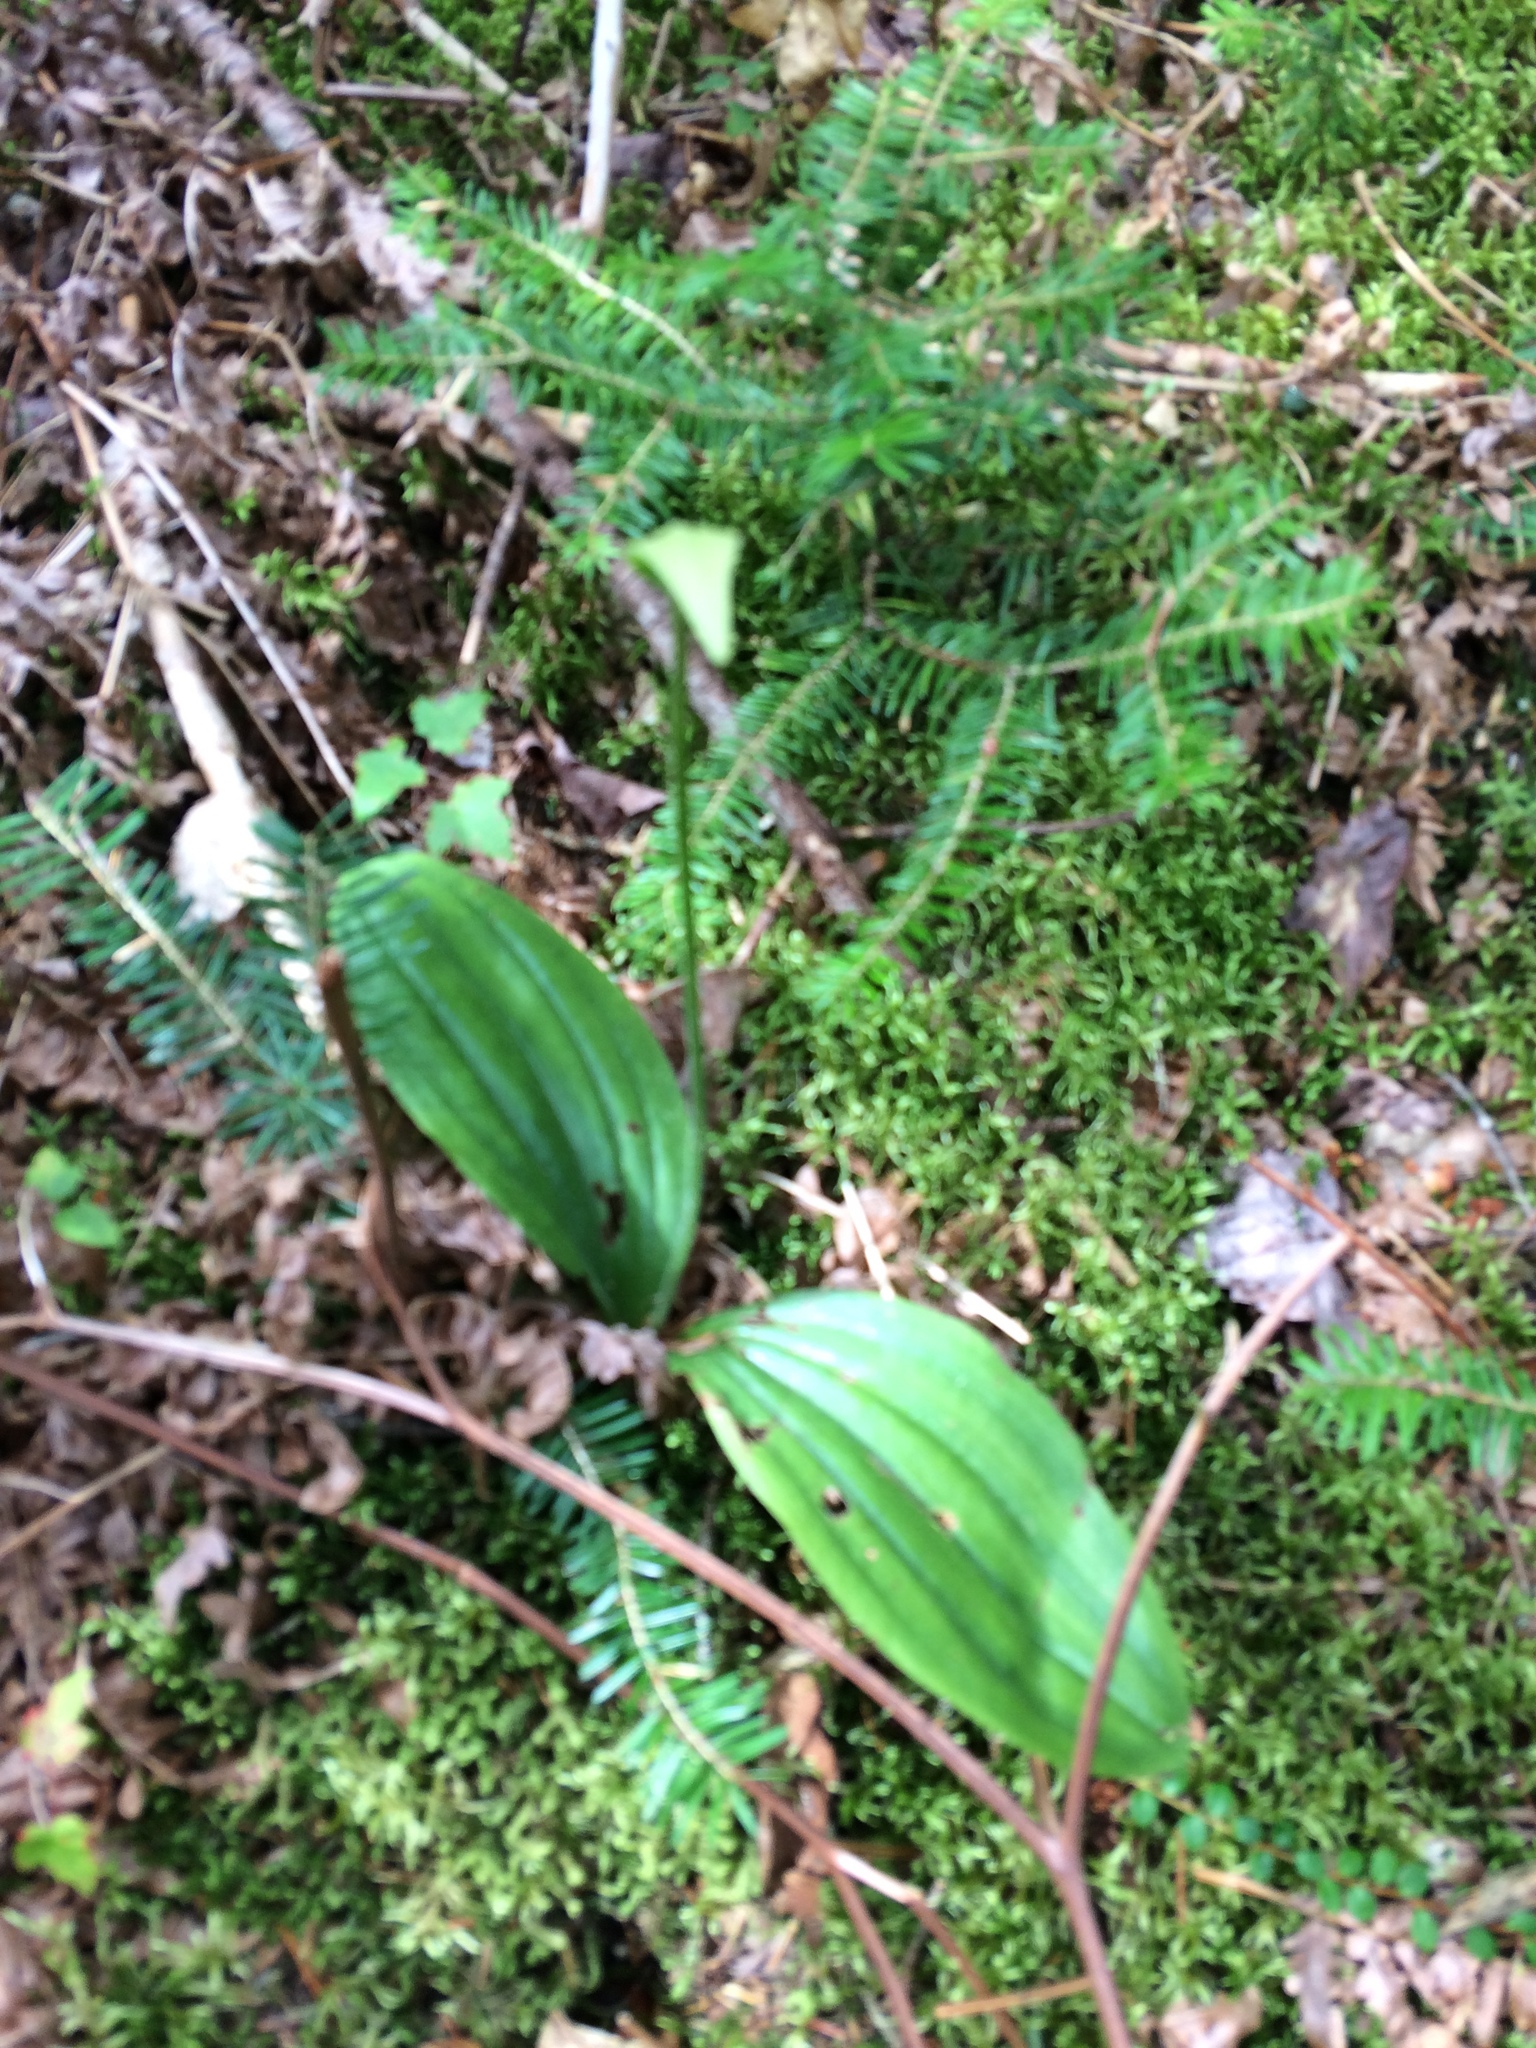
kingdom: Plantae
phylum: Tracheophyta
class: Liliopsida
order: Asparagales
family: Orchidaceae
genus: Cypripedium
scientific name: Cypripedium acaule
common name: Pink lady's-slipper
